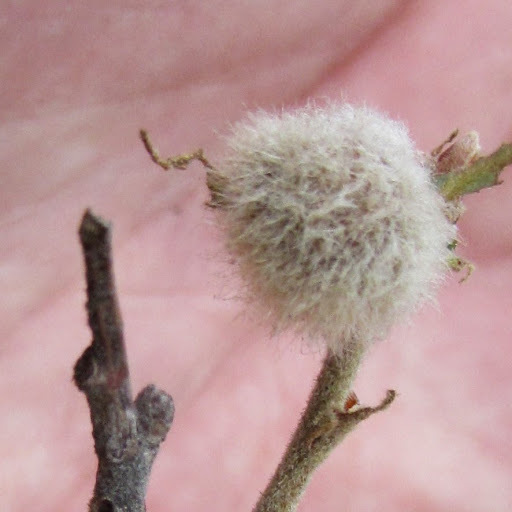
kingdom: Animalia
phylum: Arthropoda
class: Insecta
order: Hymenoptera
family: Cynipidae
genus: Disholandricus
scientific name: Disholandricus
